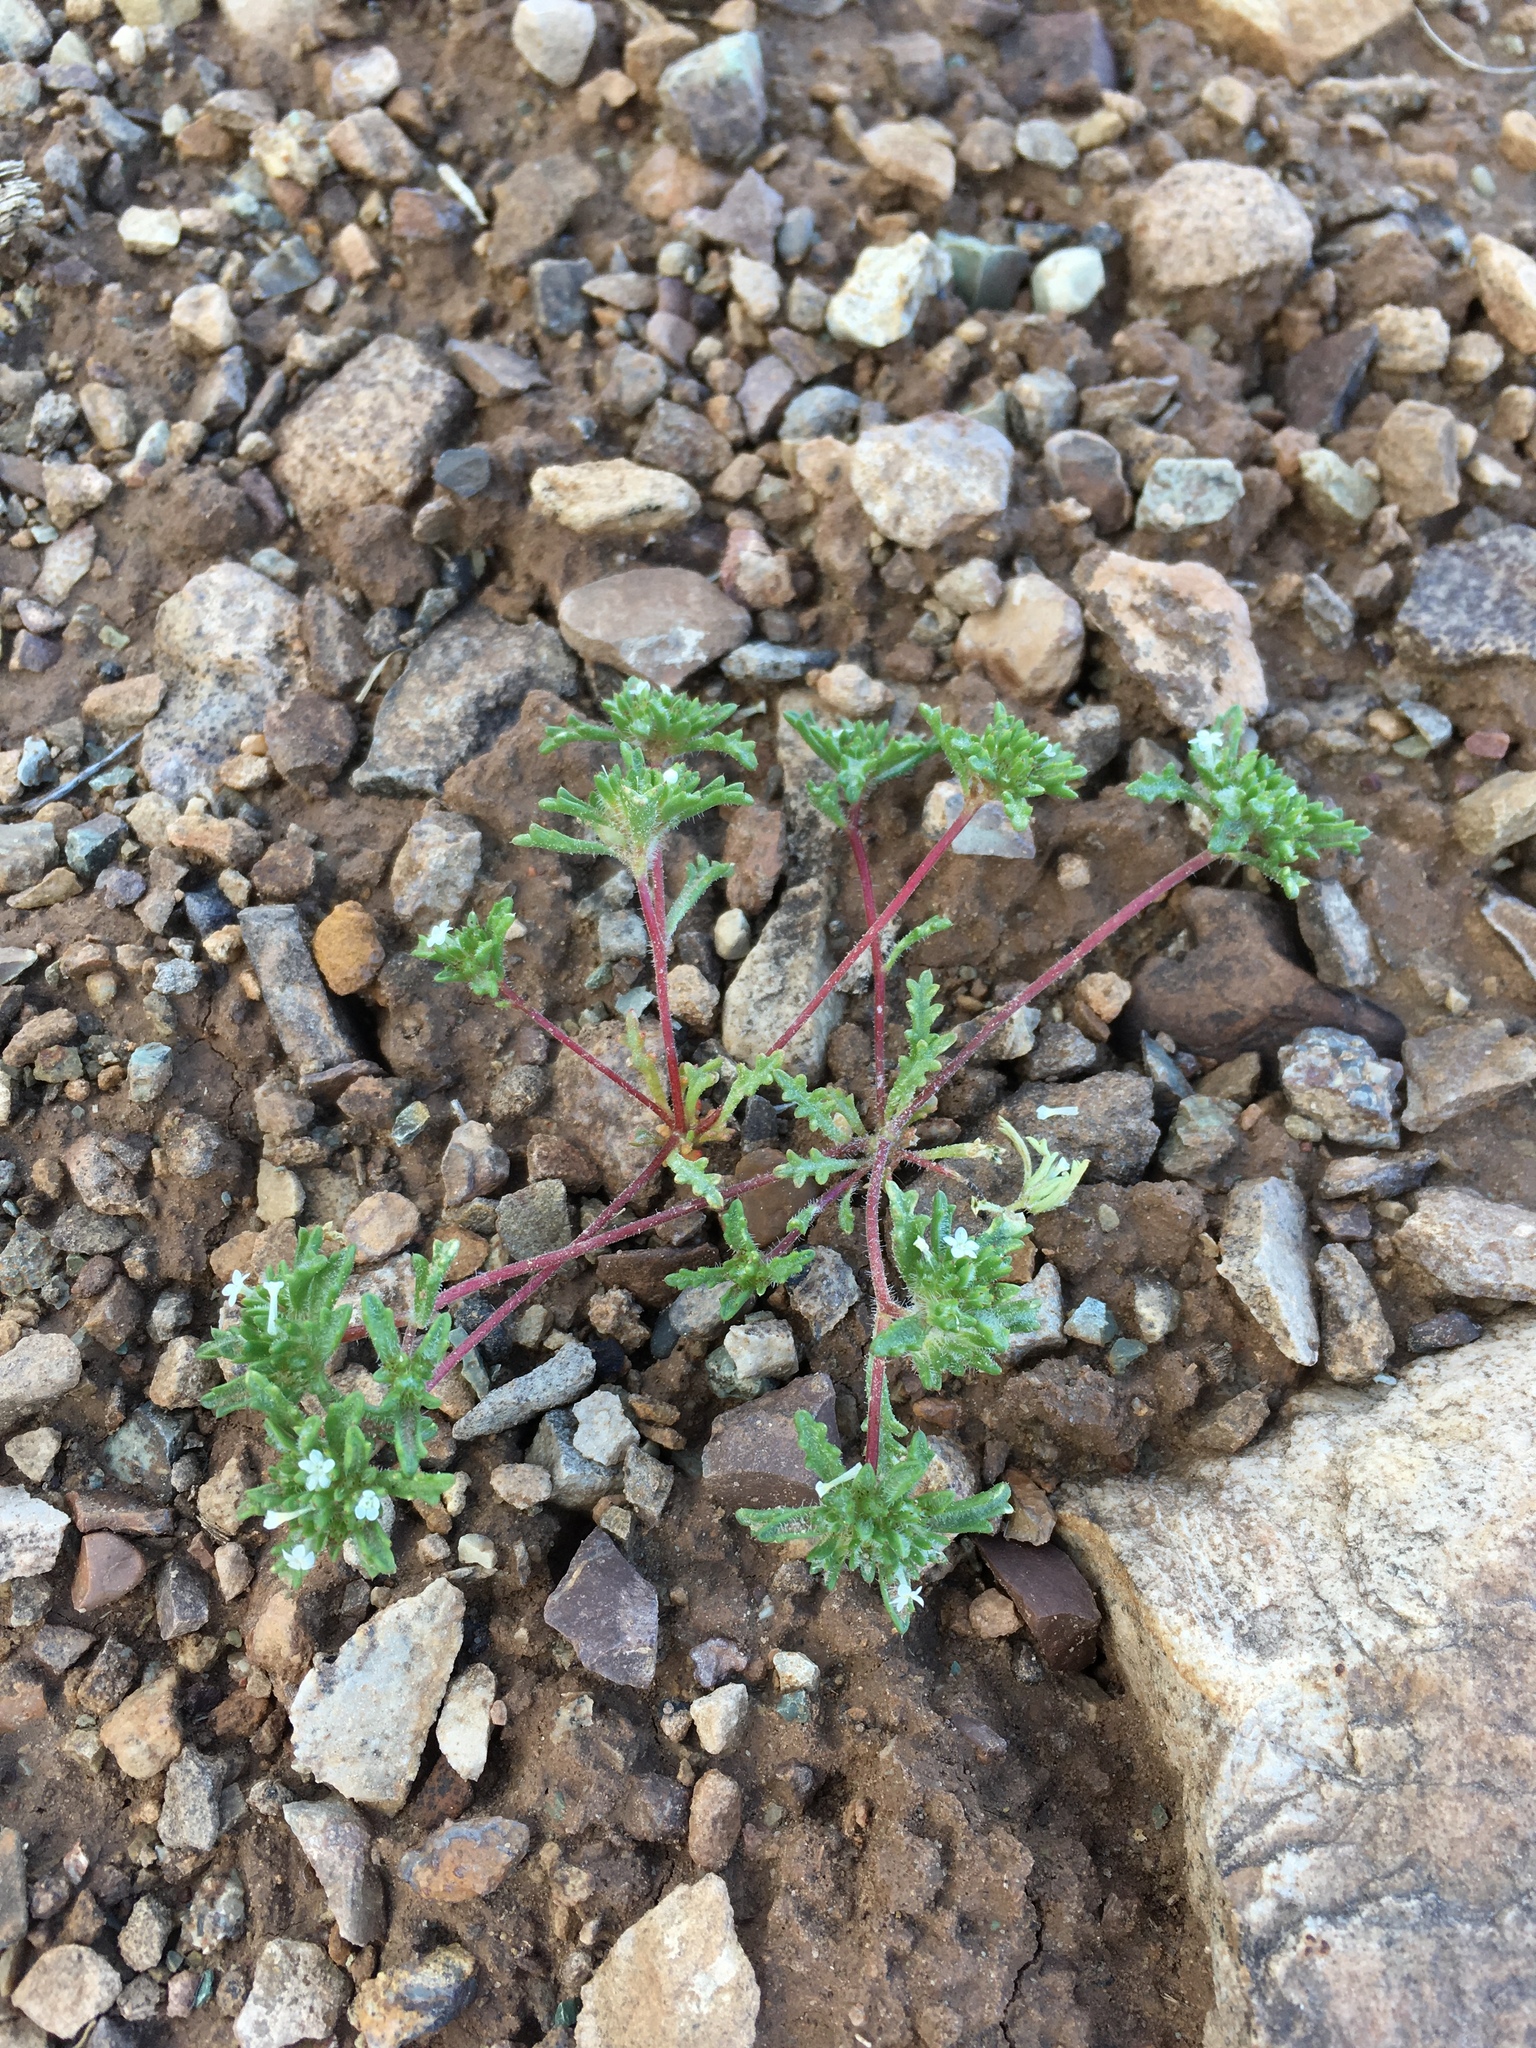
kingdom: Plantae
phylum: Tracheophyta
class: Magnoliopsida
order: Ericales
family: Polemoniaceae
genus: Ipomopsis
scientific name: Ipomopsis polycladon
